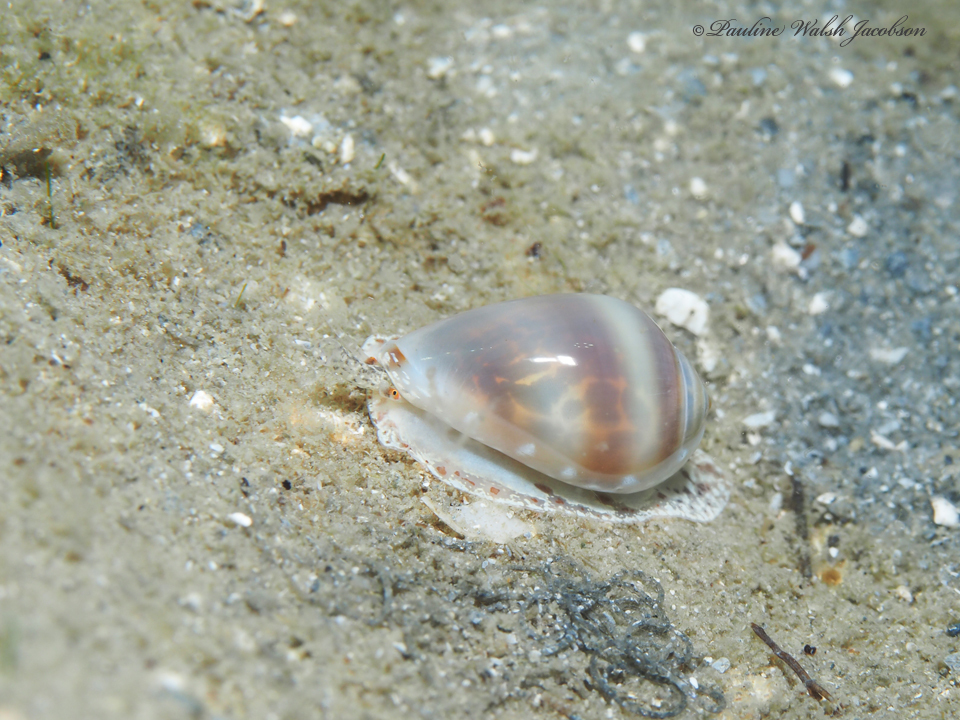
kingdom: Animalia
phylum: Mollusca
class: Gastropoda
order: Neogastropoda
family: Marginellidae
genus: Prunum
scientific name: Prunum apicinum
